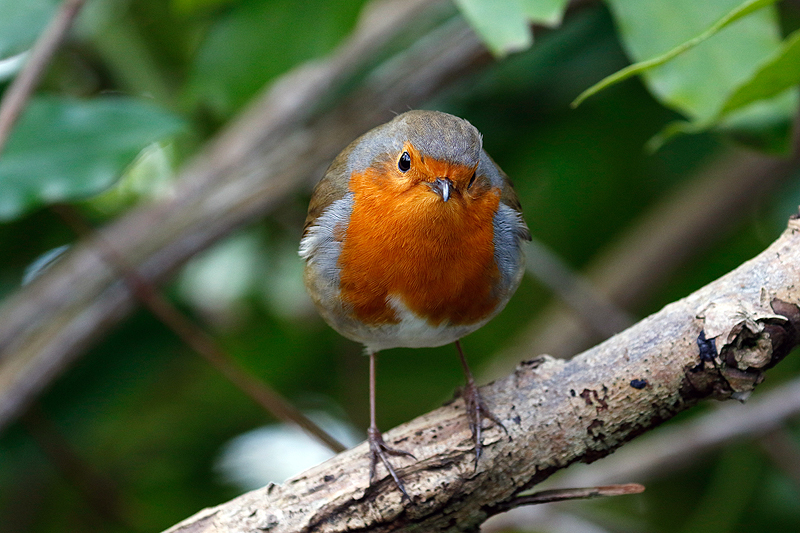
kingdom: Animalia
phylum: Chordata
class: Aves
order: Passeriformes
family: Muscicapidae
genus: Erithacus
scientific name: Erithacus rubecula
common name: European robin
